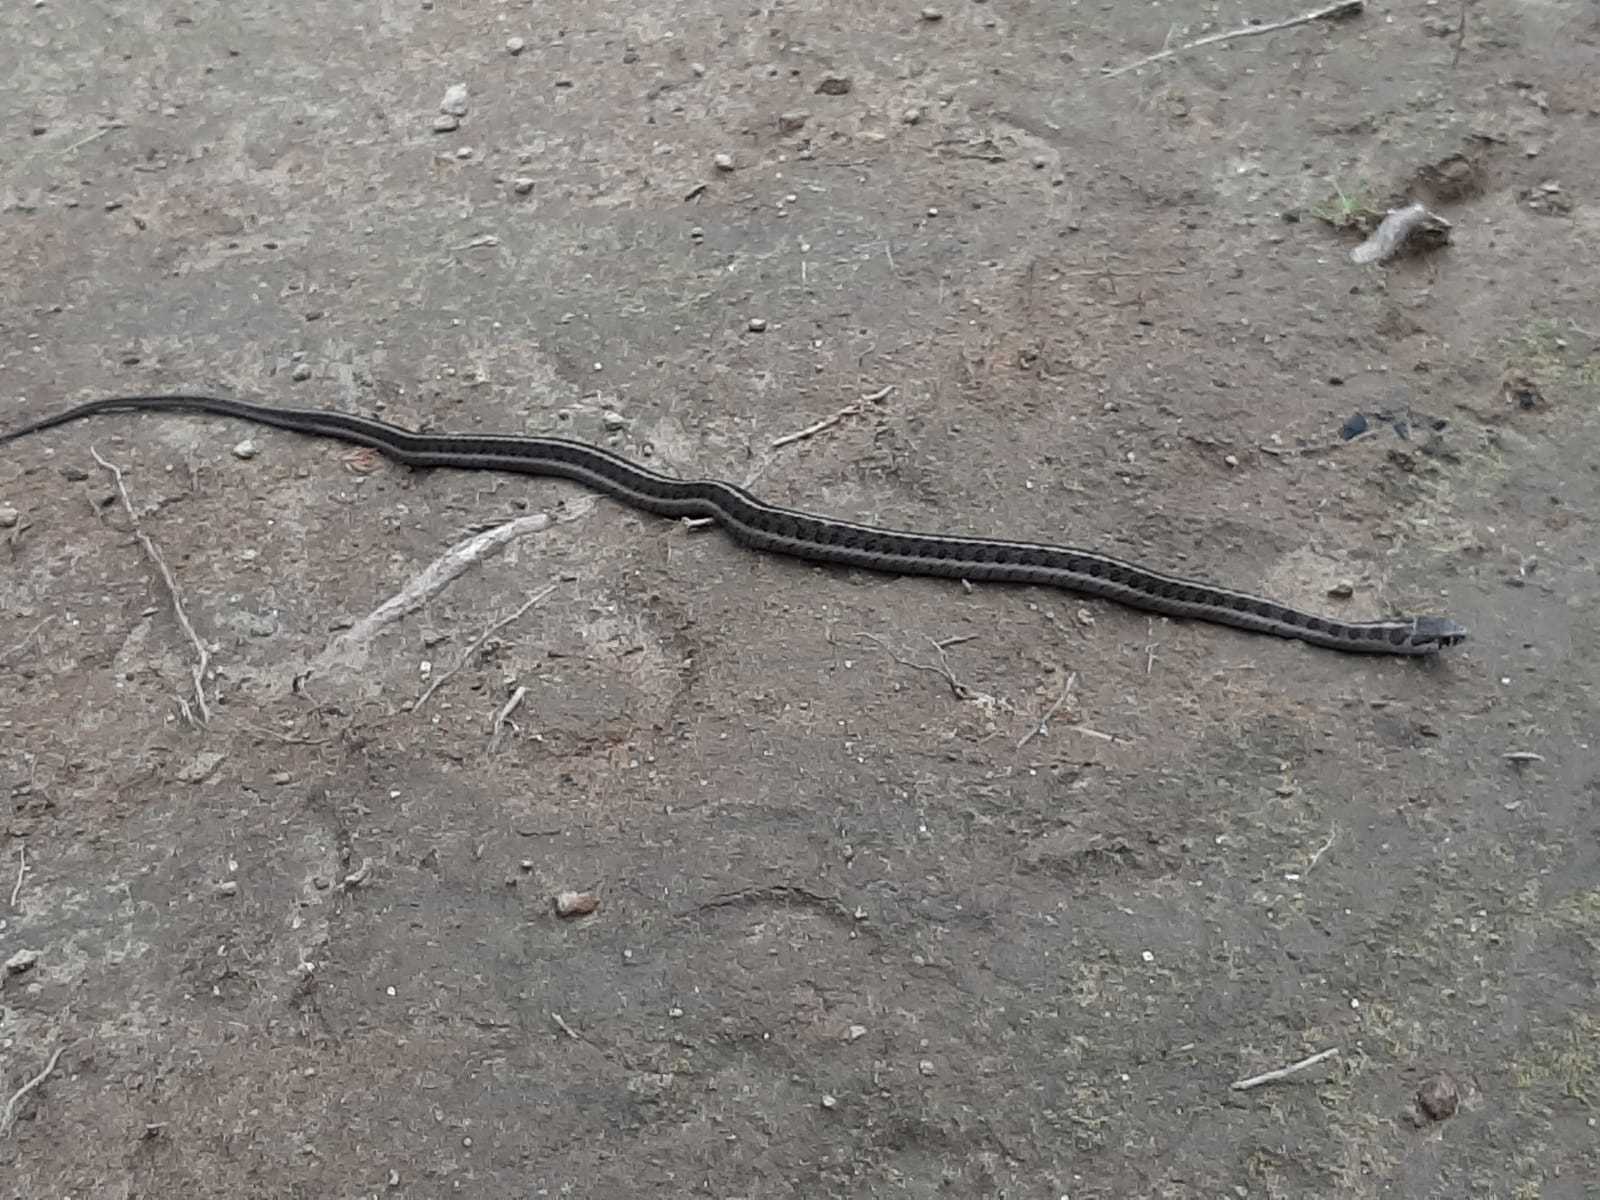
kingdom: Animalia
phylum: Chordata
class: Squamata
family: Colubridae
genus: Thamnophis
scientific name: Thamnophis scalaris
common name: Longtail alpine garter snake
